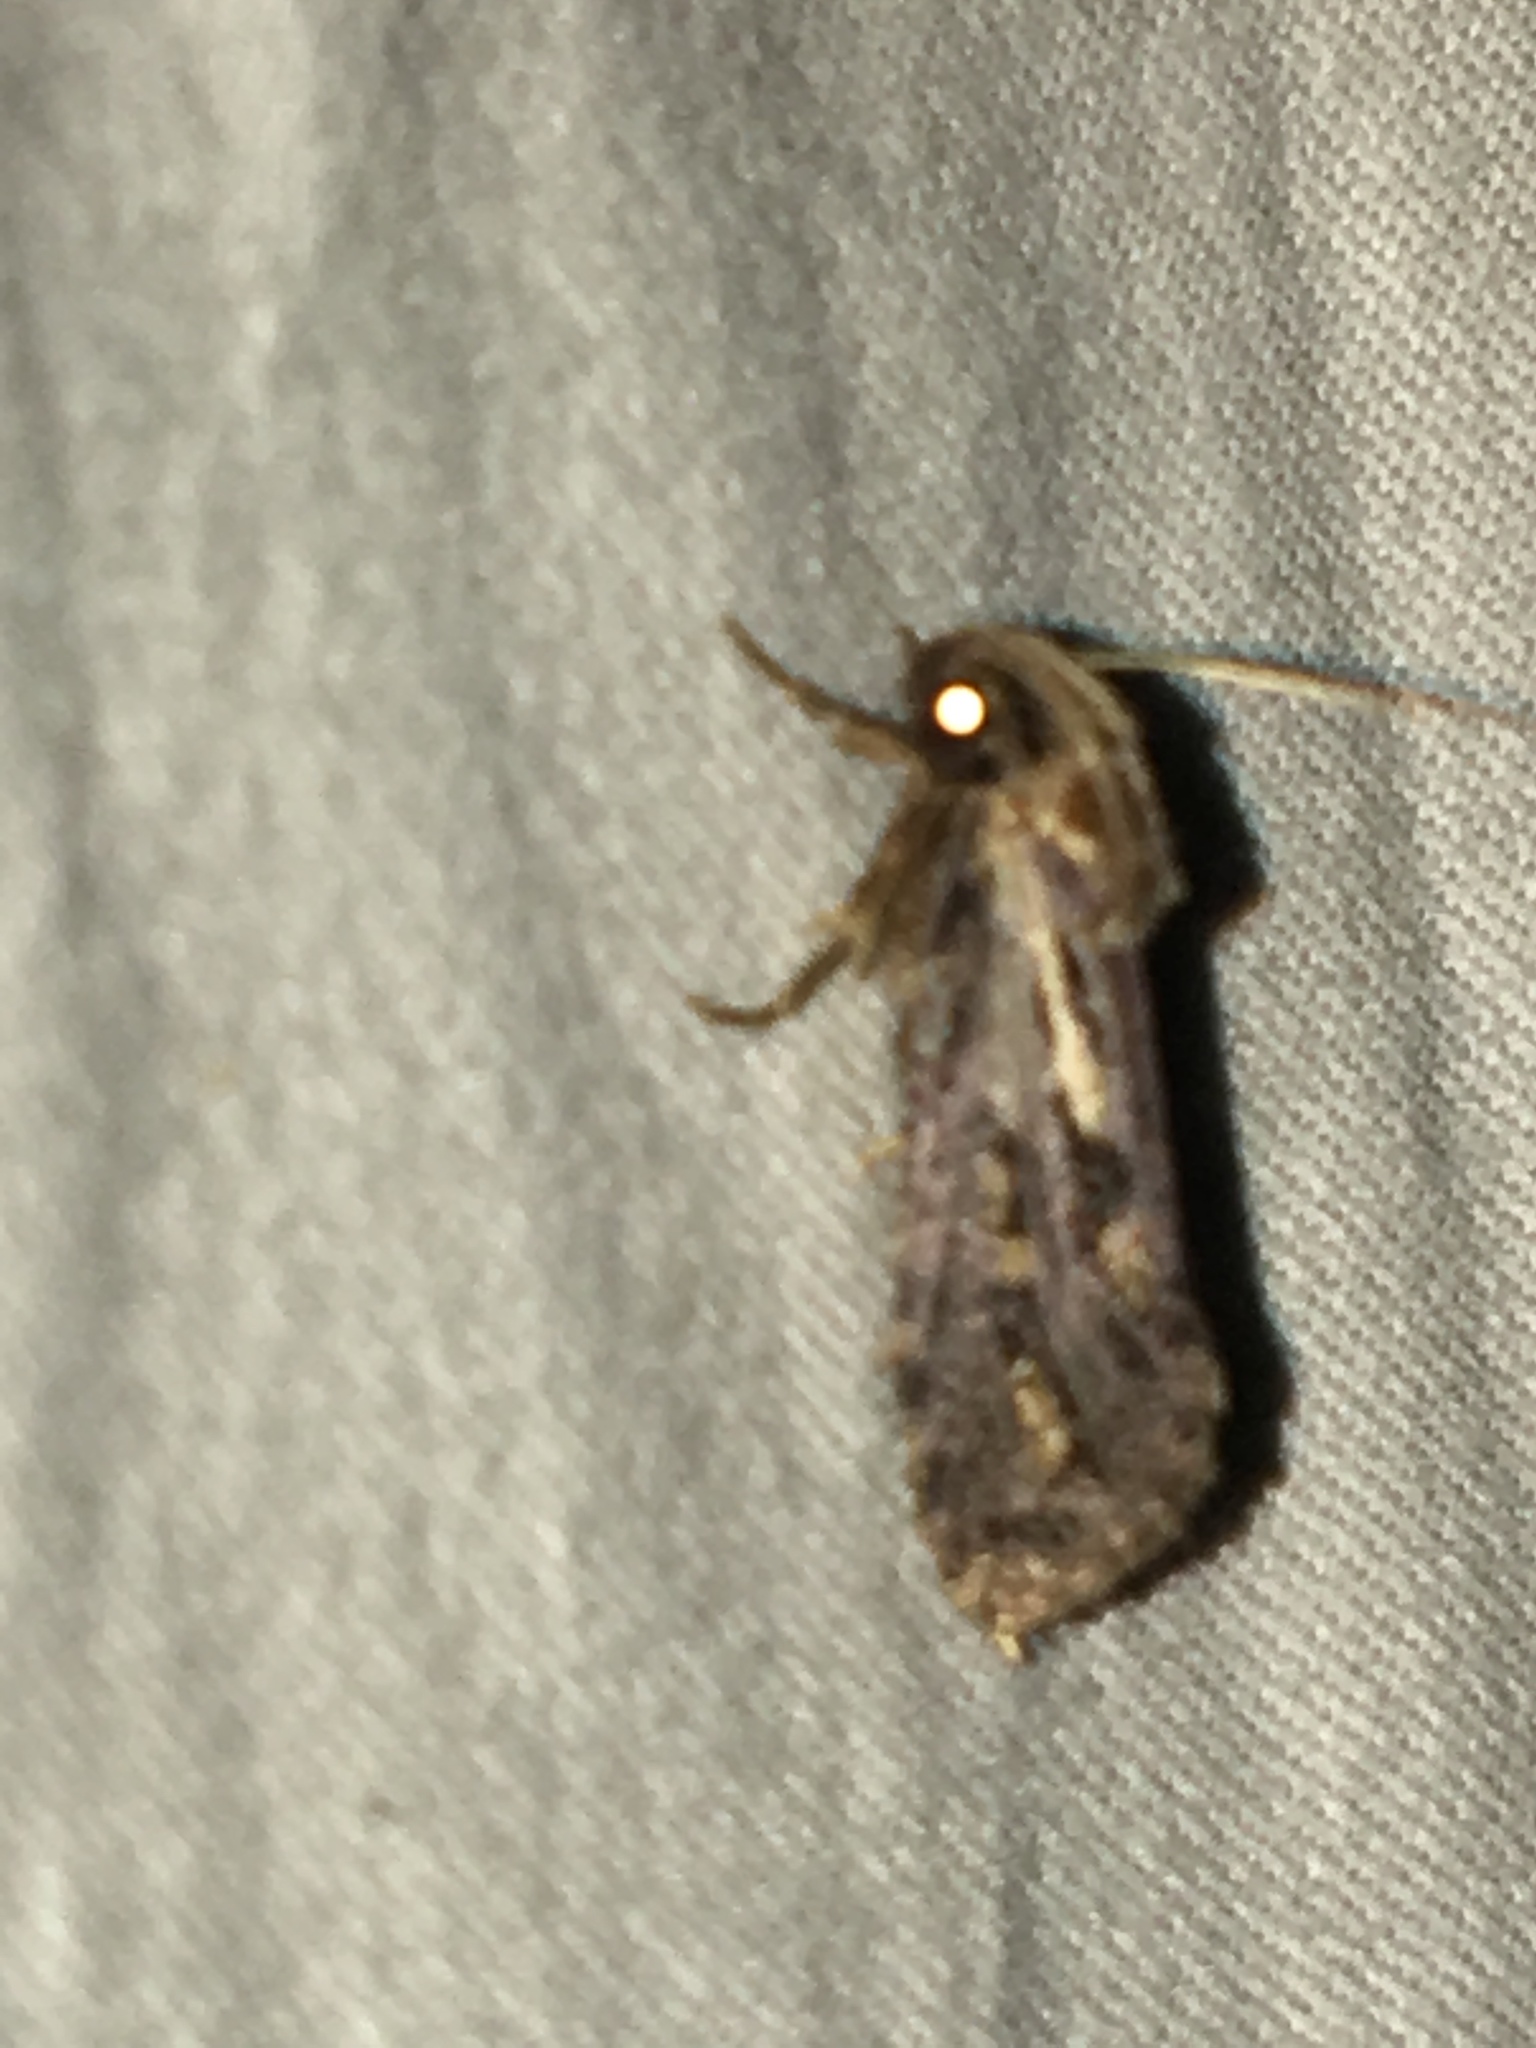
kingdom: Animalia
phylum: Arthropoda
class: Insecta
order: Lepidoptera
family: Tineidae
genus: Acrolophus
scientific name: Acrolophus popeanella
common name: Clemens' grass tubeworm moth
